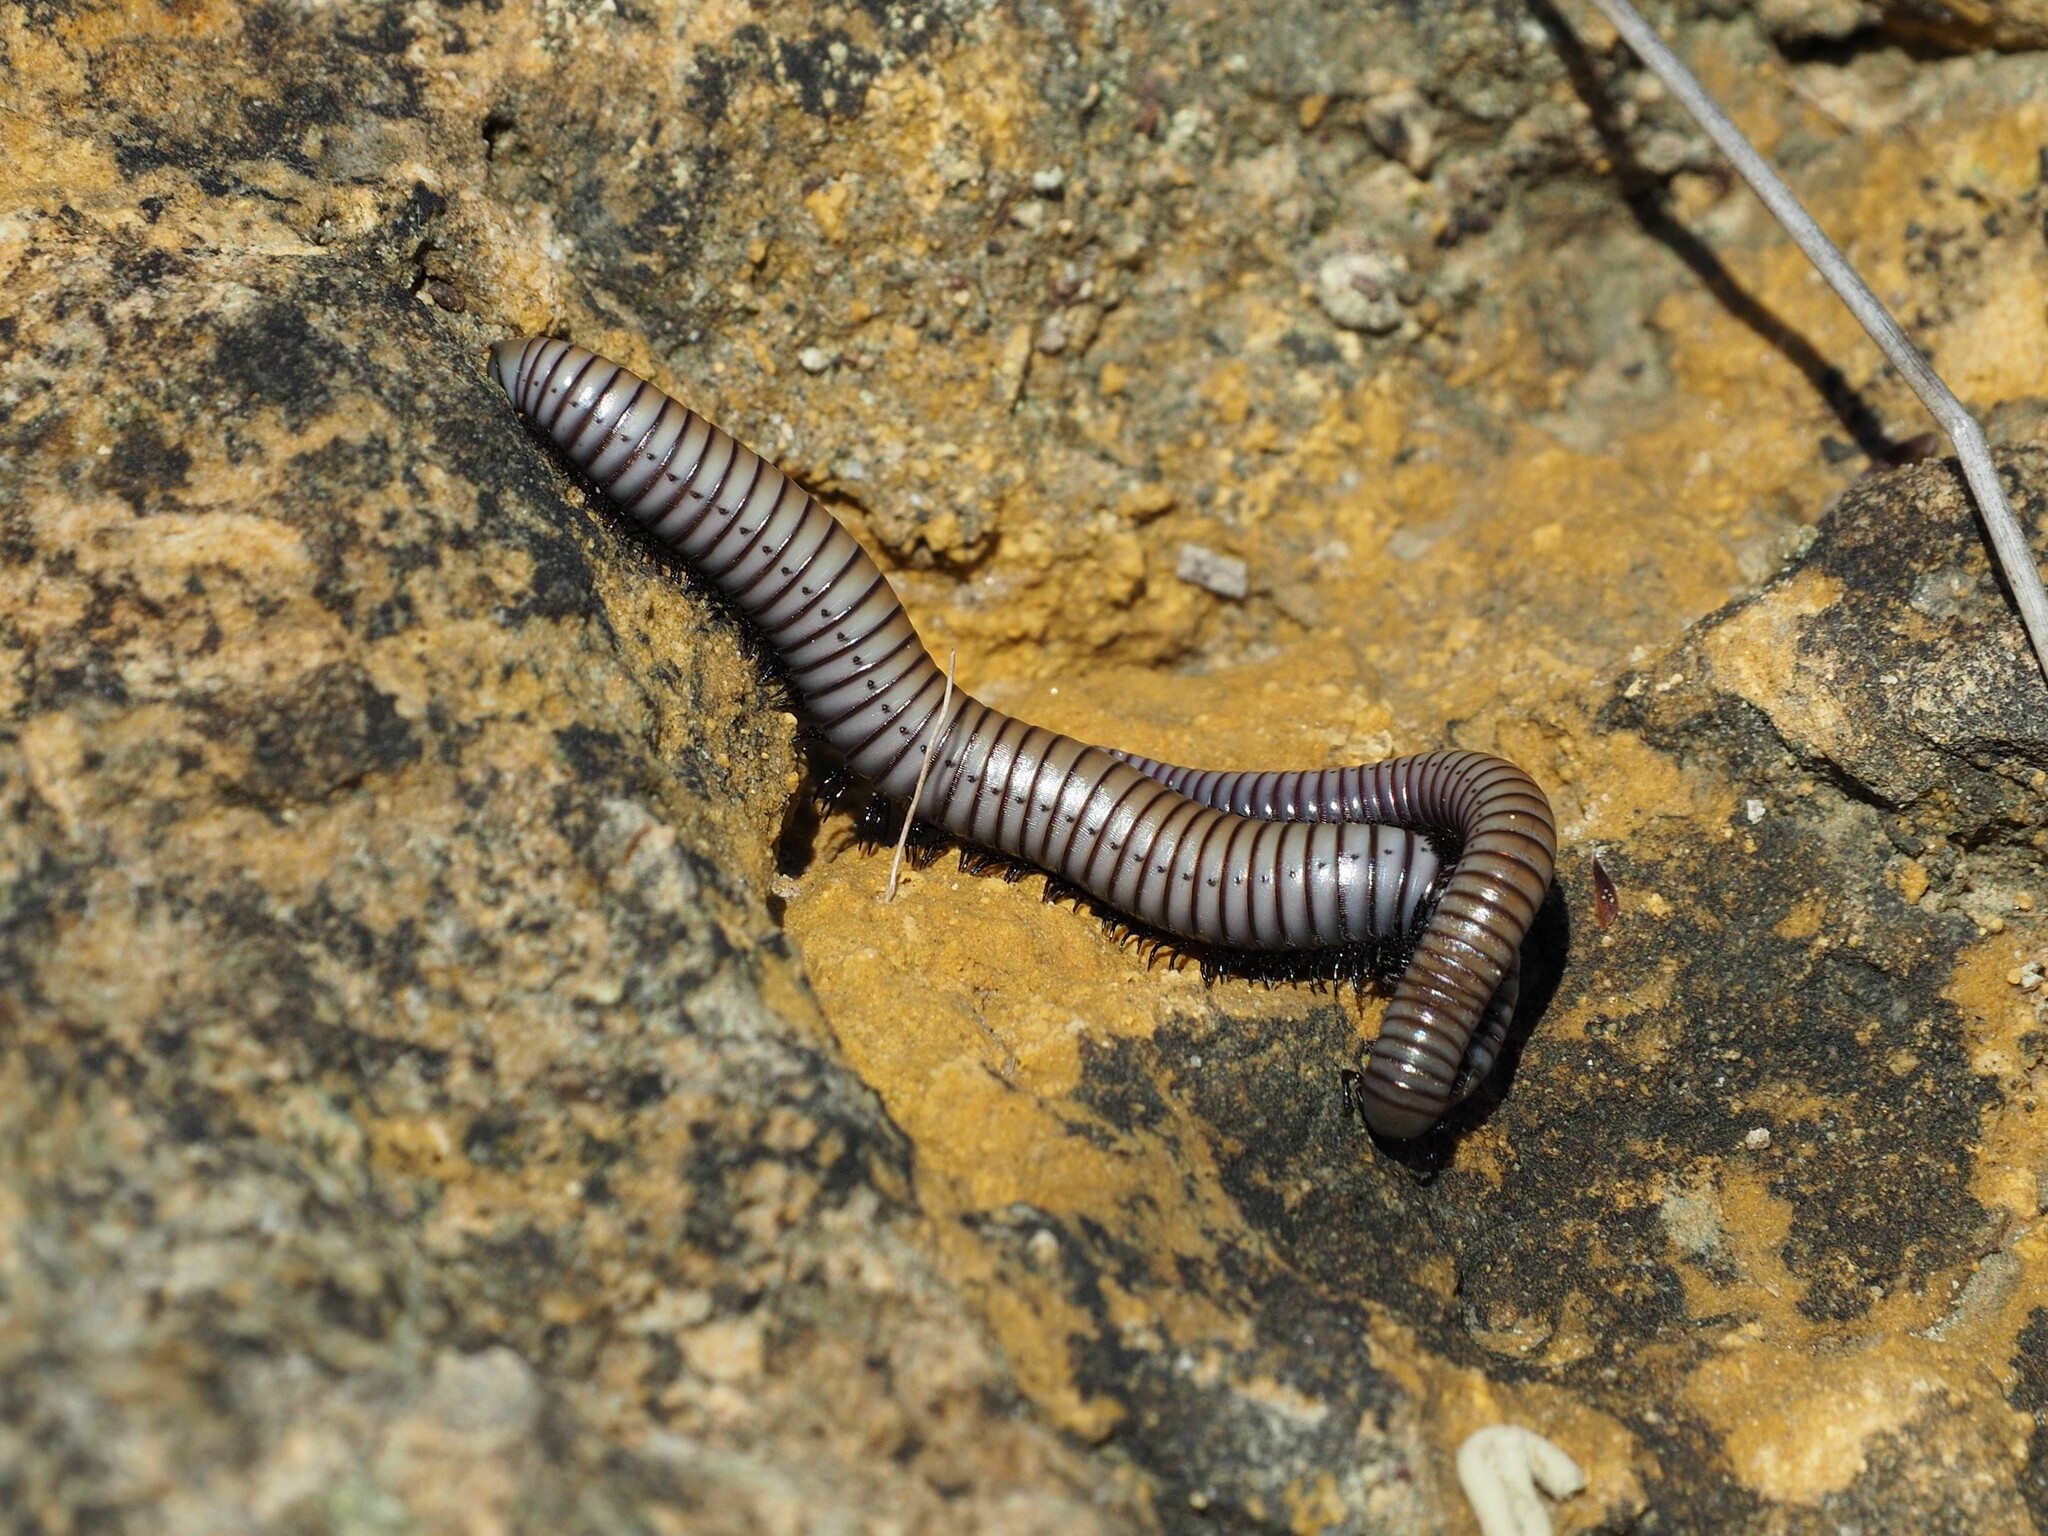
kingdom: Animalia
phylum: Arthropoda
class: Diplopoda
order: Julida
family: Julidae
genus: Ommatoiulus
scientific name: Ommatoiulus rutilans
